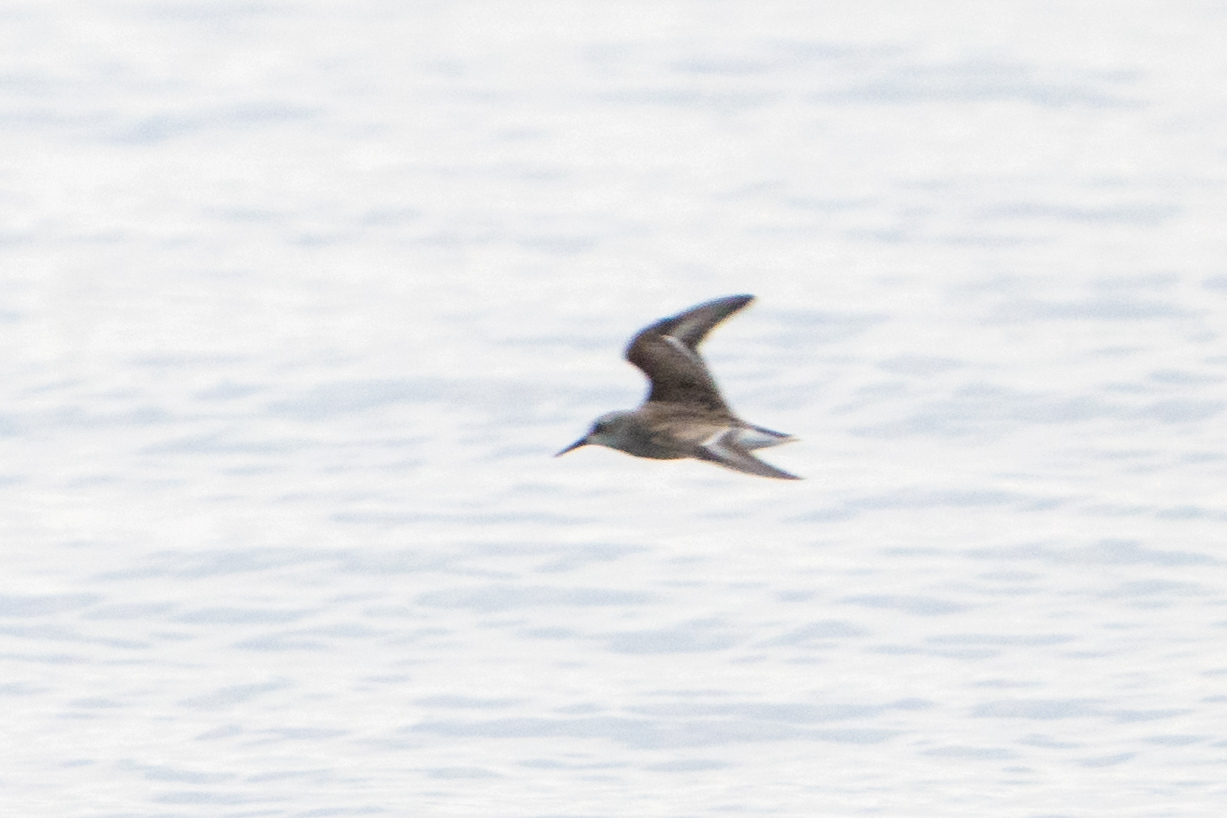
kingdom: Animalia
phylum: Chordata
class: Aves
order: Charadriiformes
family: Scolopacidae
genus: Calidris
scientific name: Calidris mauri
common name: Western sandpiper
